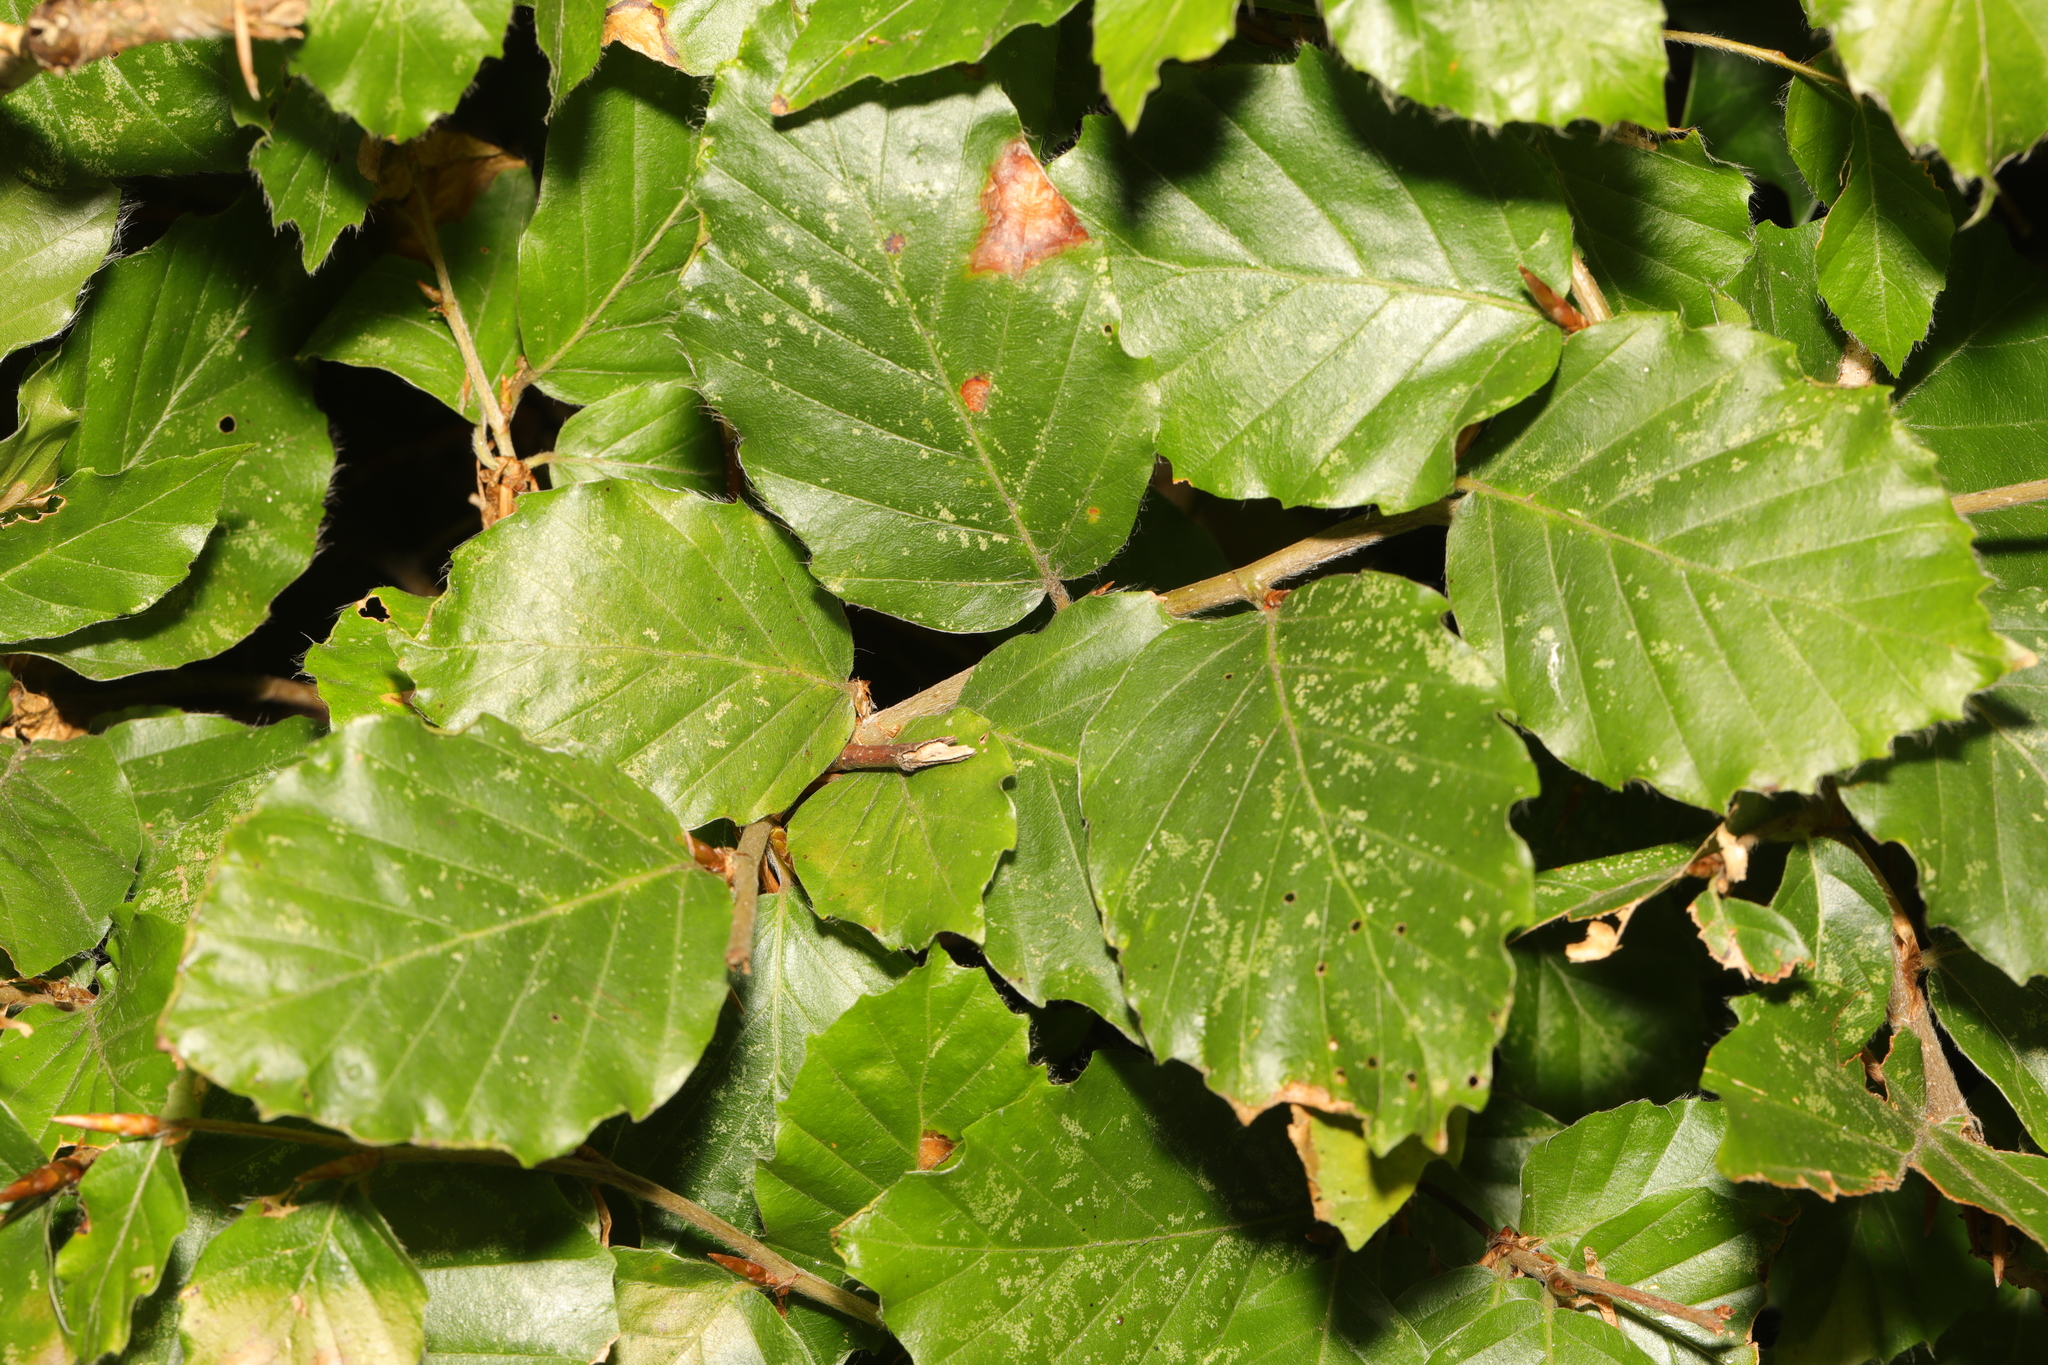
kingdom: Plantae
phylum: Tracheophyta
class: Magnoliopsida
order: Fagales
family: Fagaceae
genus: Fagus
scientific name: Fagus sylvatica
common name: Beech
